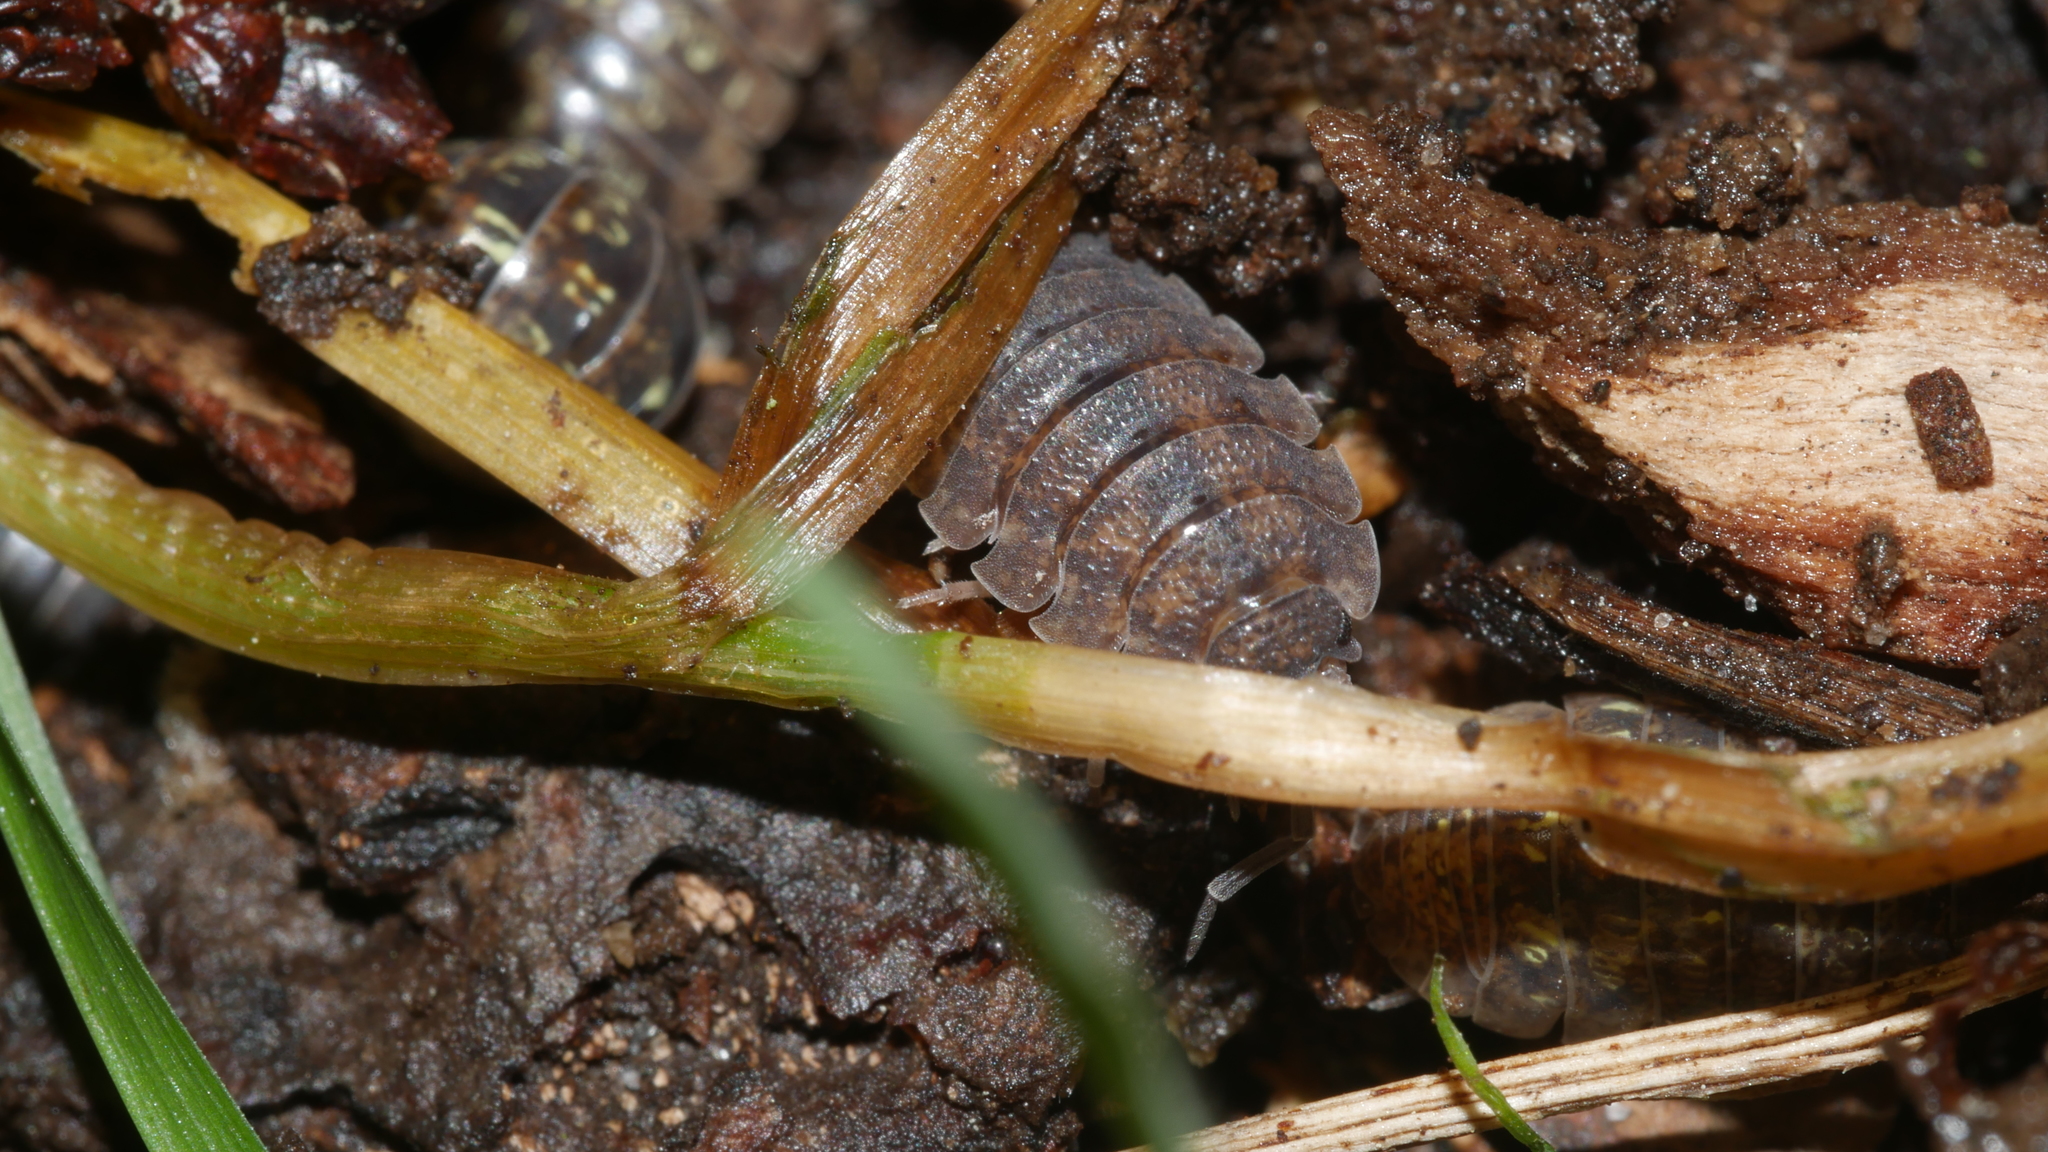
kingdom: Animalia
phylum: Arthropoda
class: Malacostraca
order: Isopoda
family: Porcellionidae
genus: Porcellio
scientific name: Porcellio scaber
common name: Common rough woodlouse
